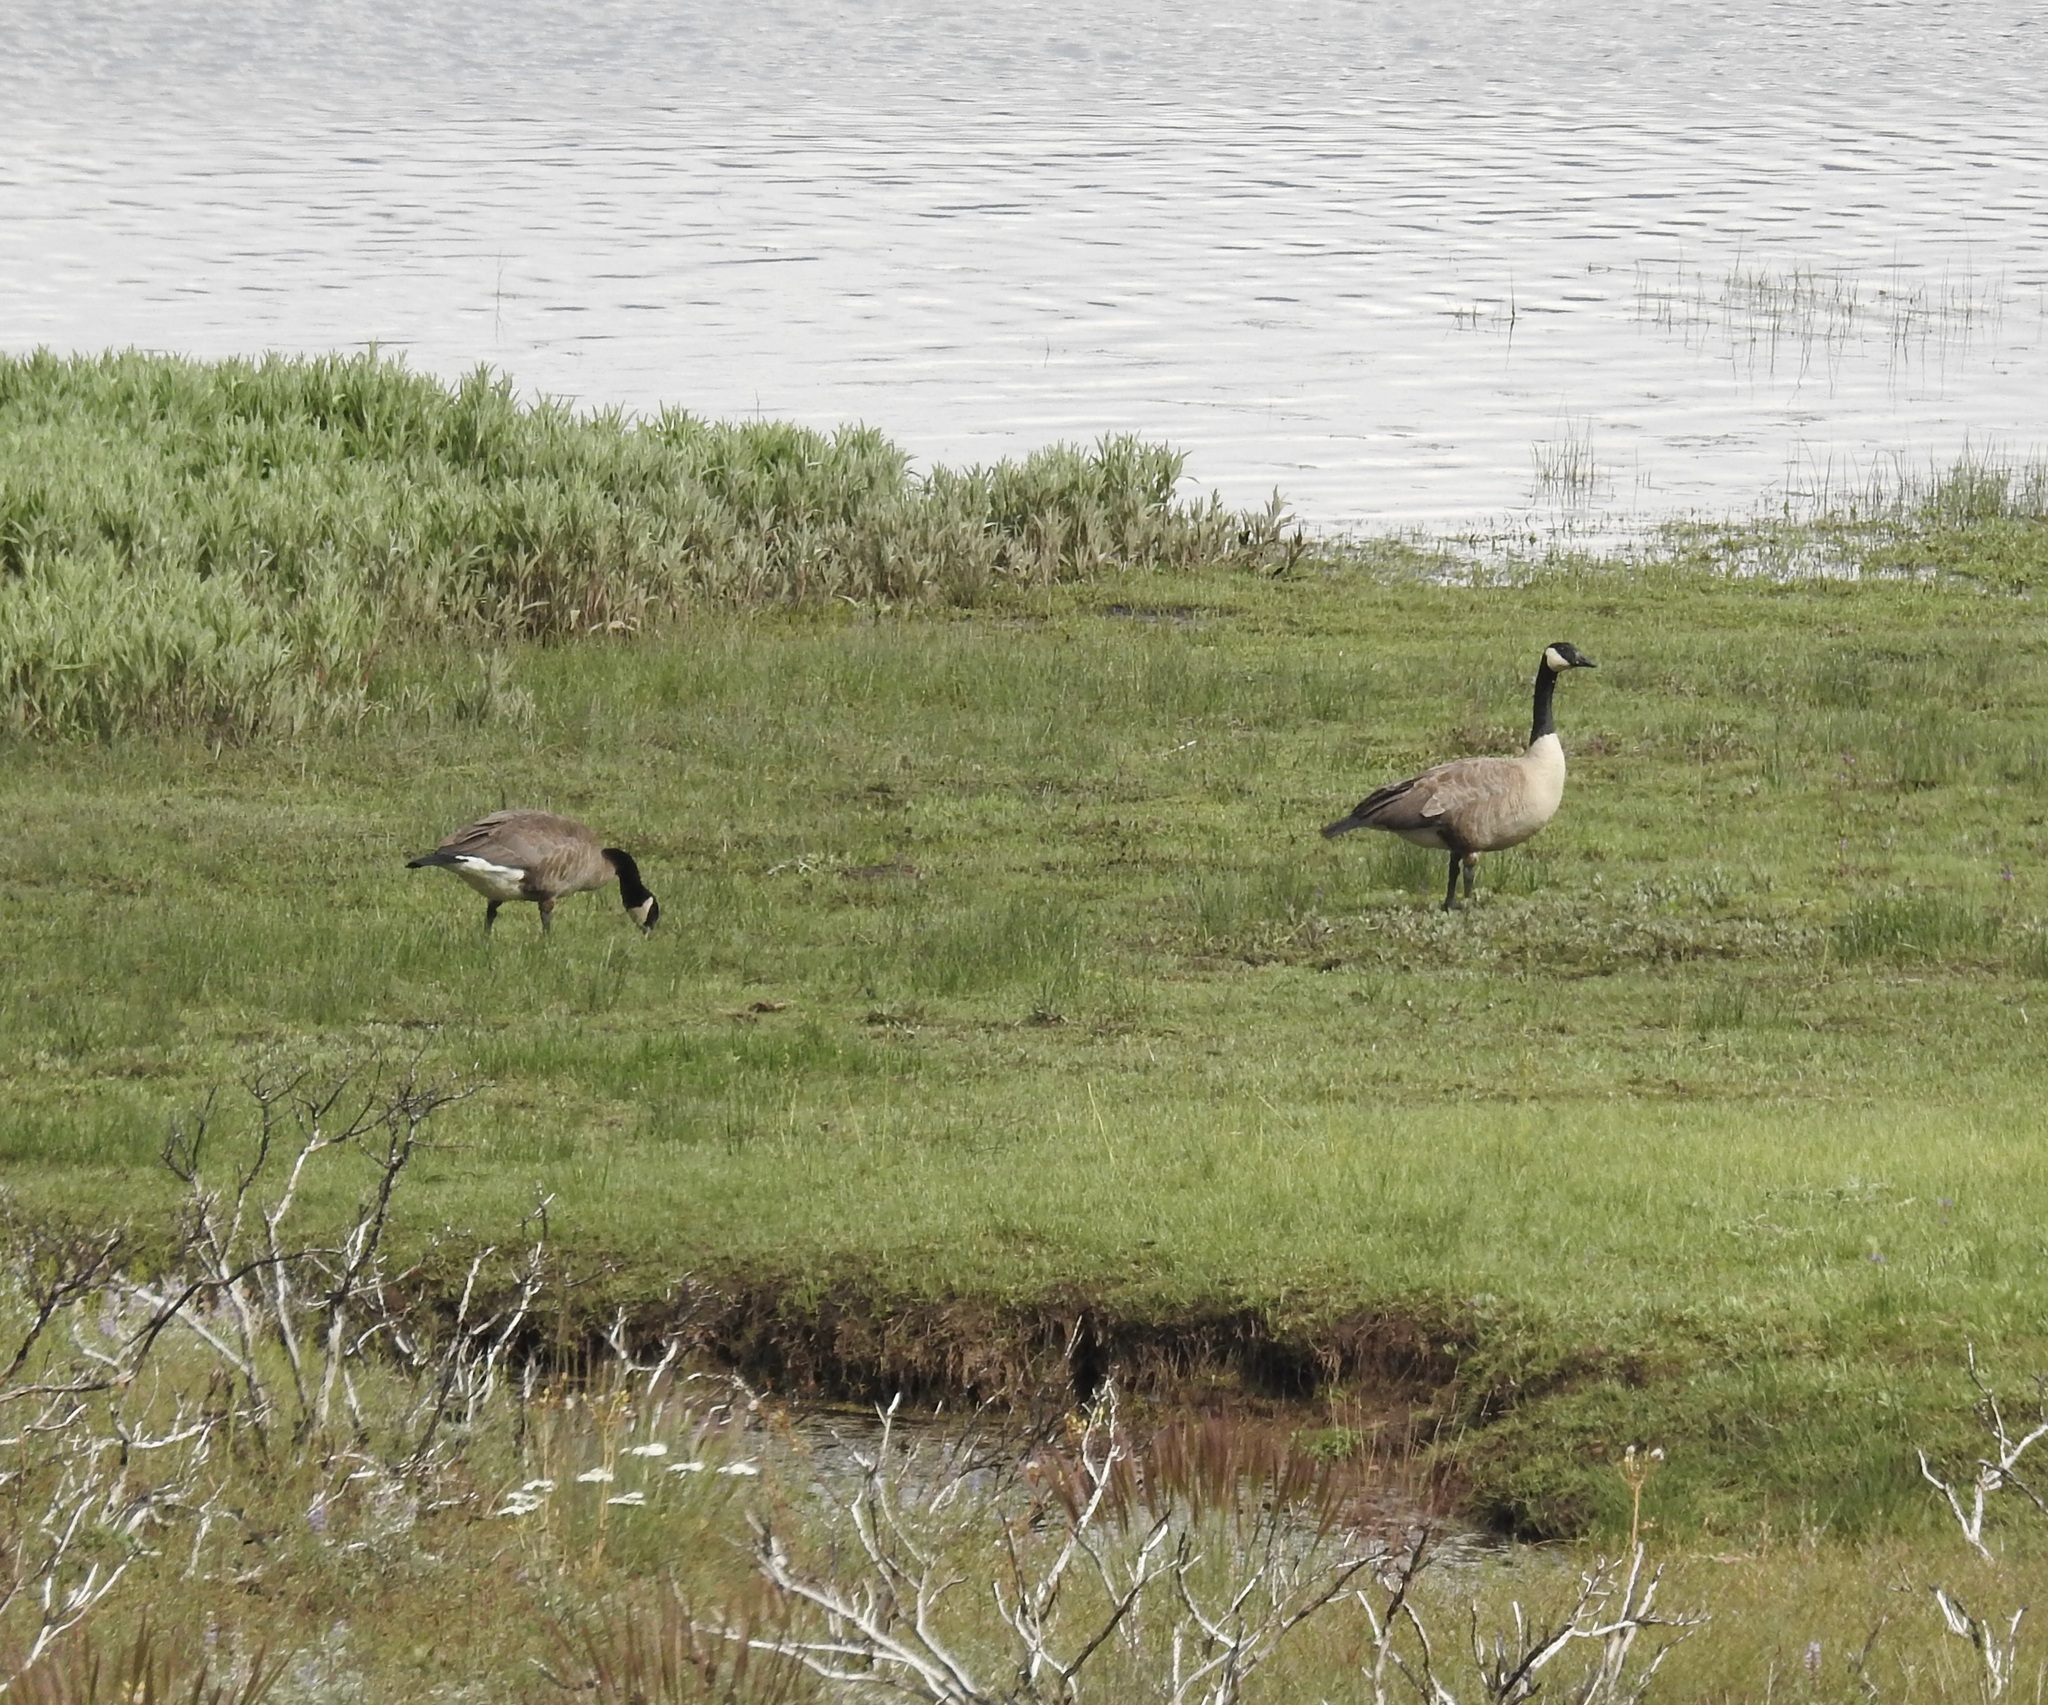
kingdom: Animalia
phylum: Chordata
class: Aves
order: Anseriformes
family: Anatidae
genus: Branta
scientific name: Branta canadensis
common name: Canada goose
